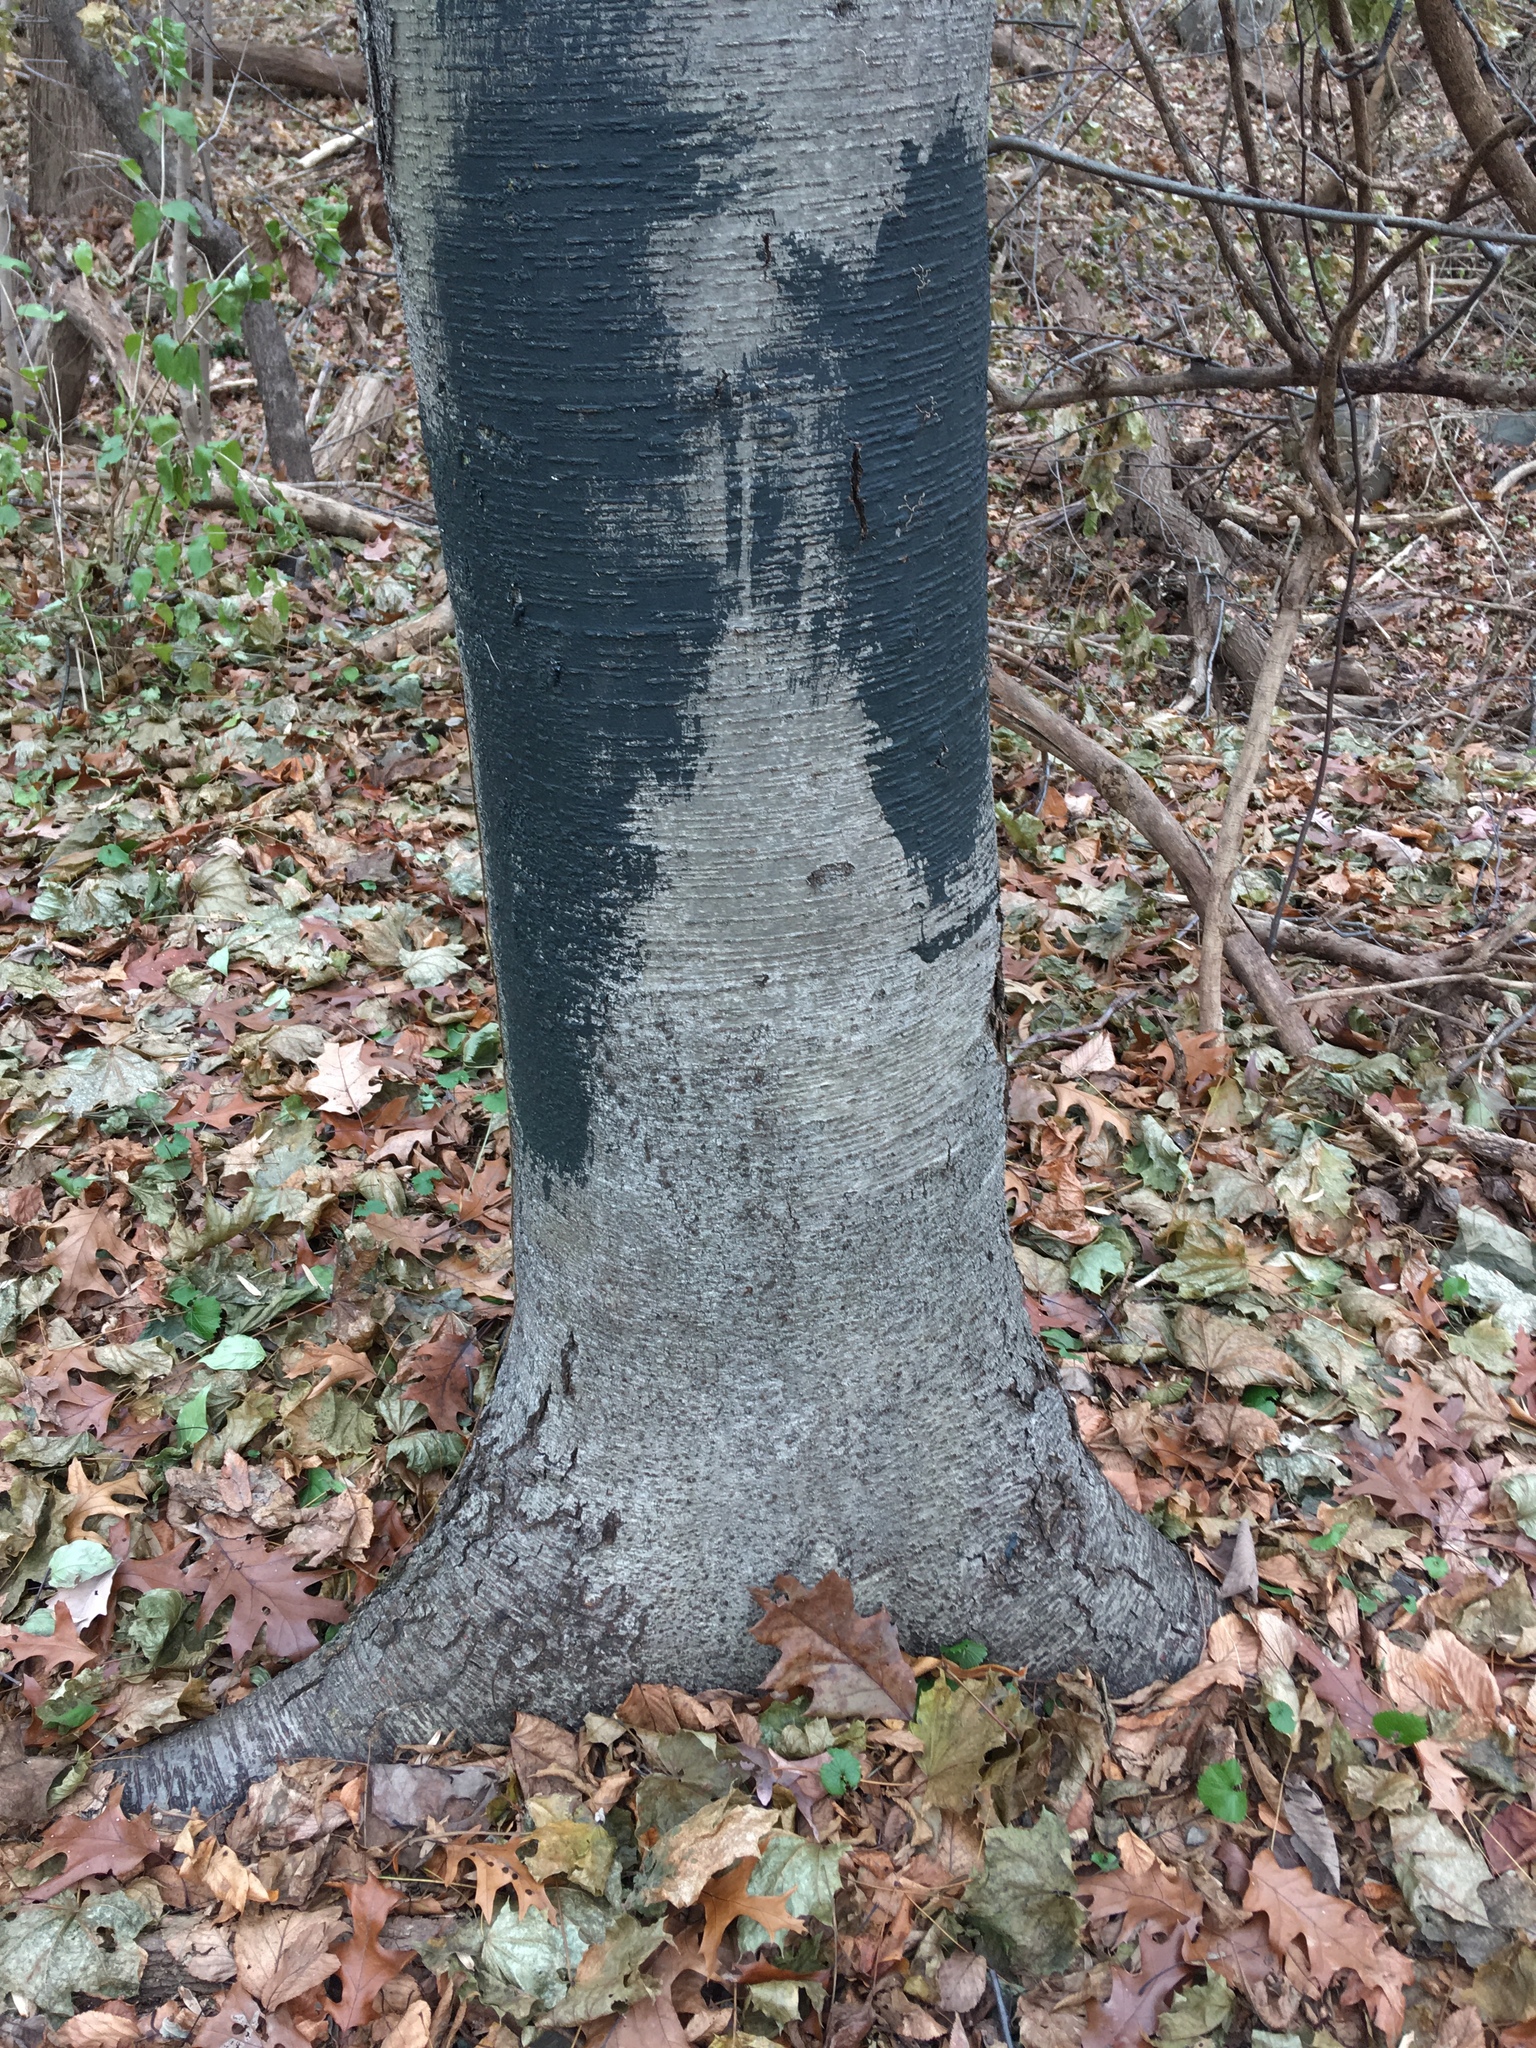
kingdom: Plantae
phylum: Tracheophyta
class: Magnoliopsida
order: Fagales
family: Betulaceae
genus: Betula
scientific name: Betula lenta
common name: Black birch
